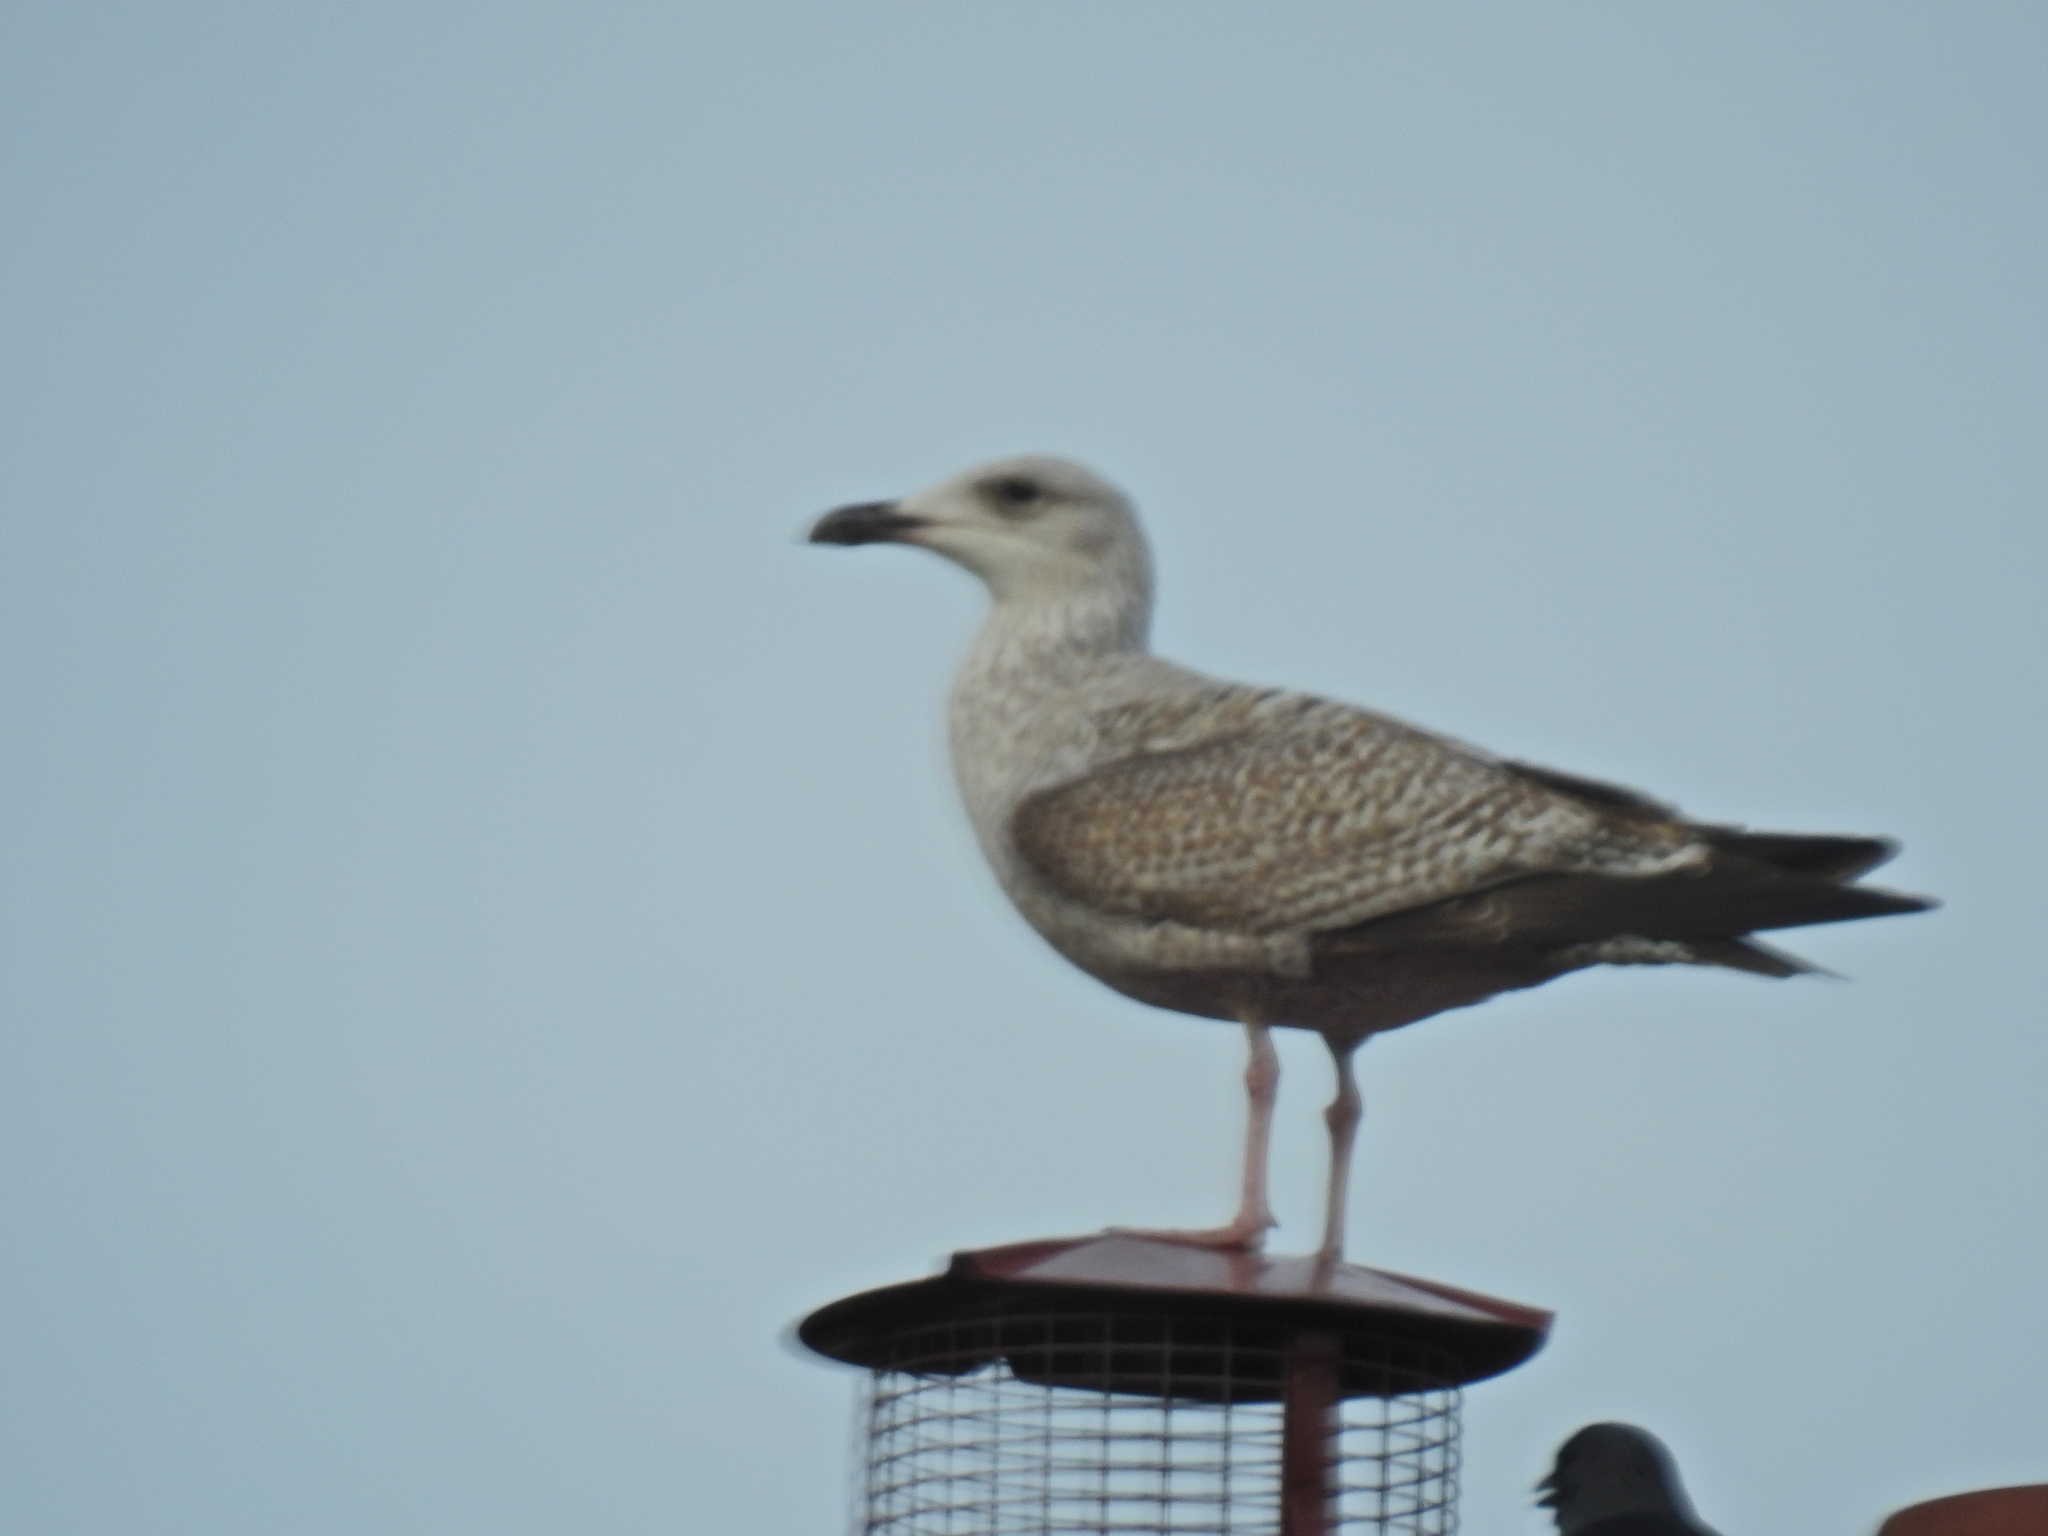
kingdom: Animalia
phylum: Chordata
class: Aves
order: Charadriiformes
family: Laridae
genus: Larus
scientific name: Larus argentatus
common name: Herring gull
